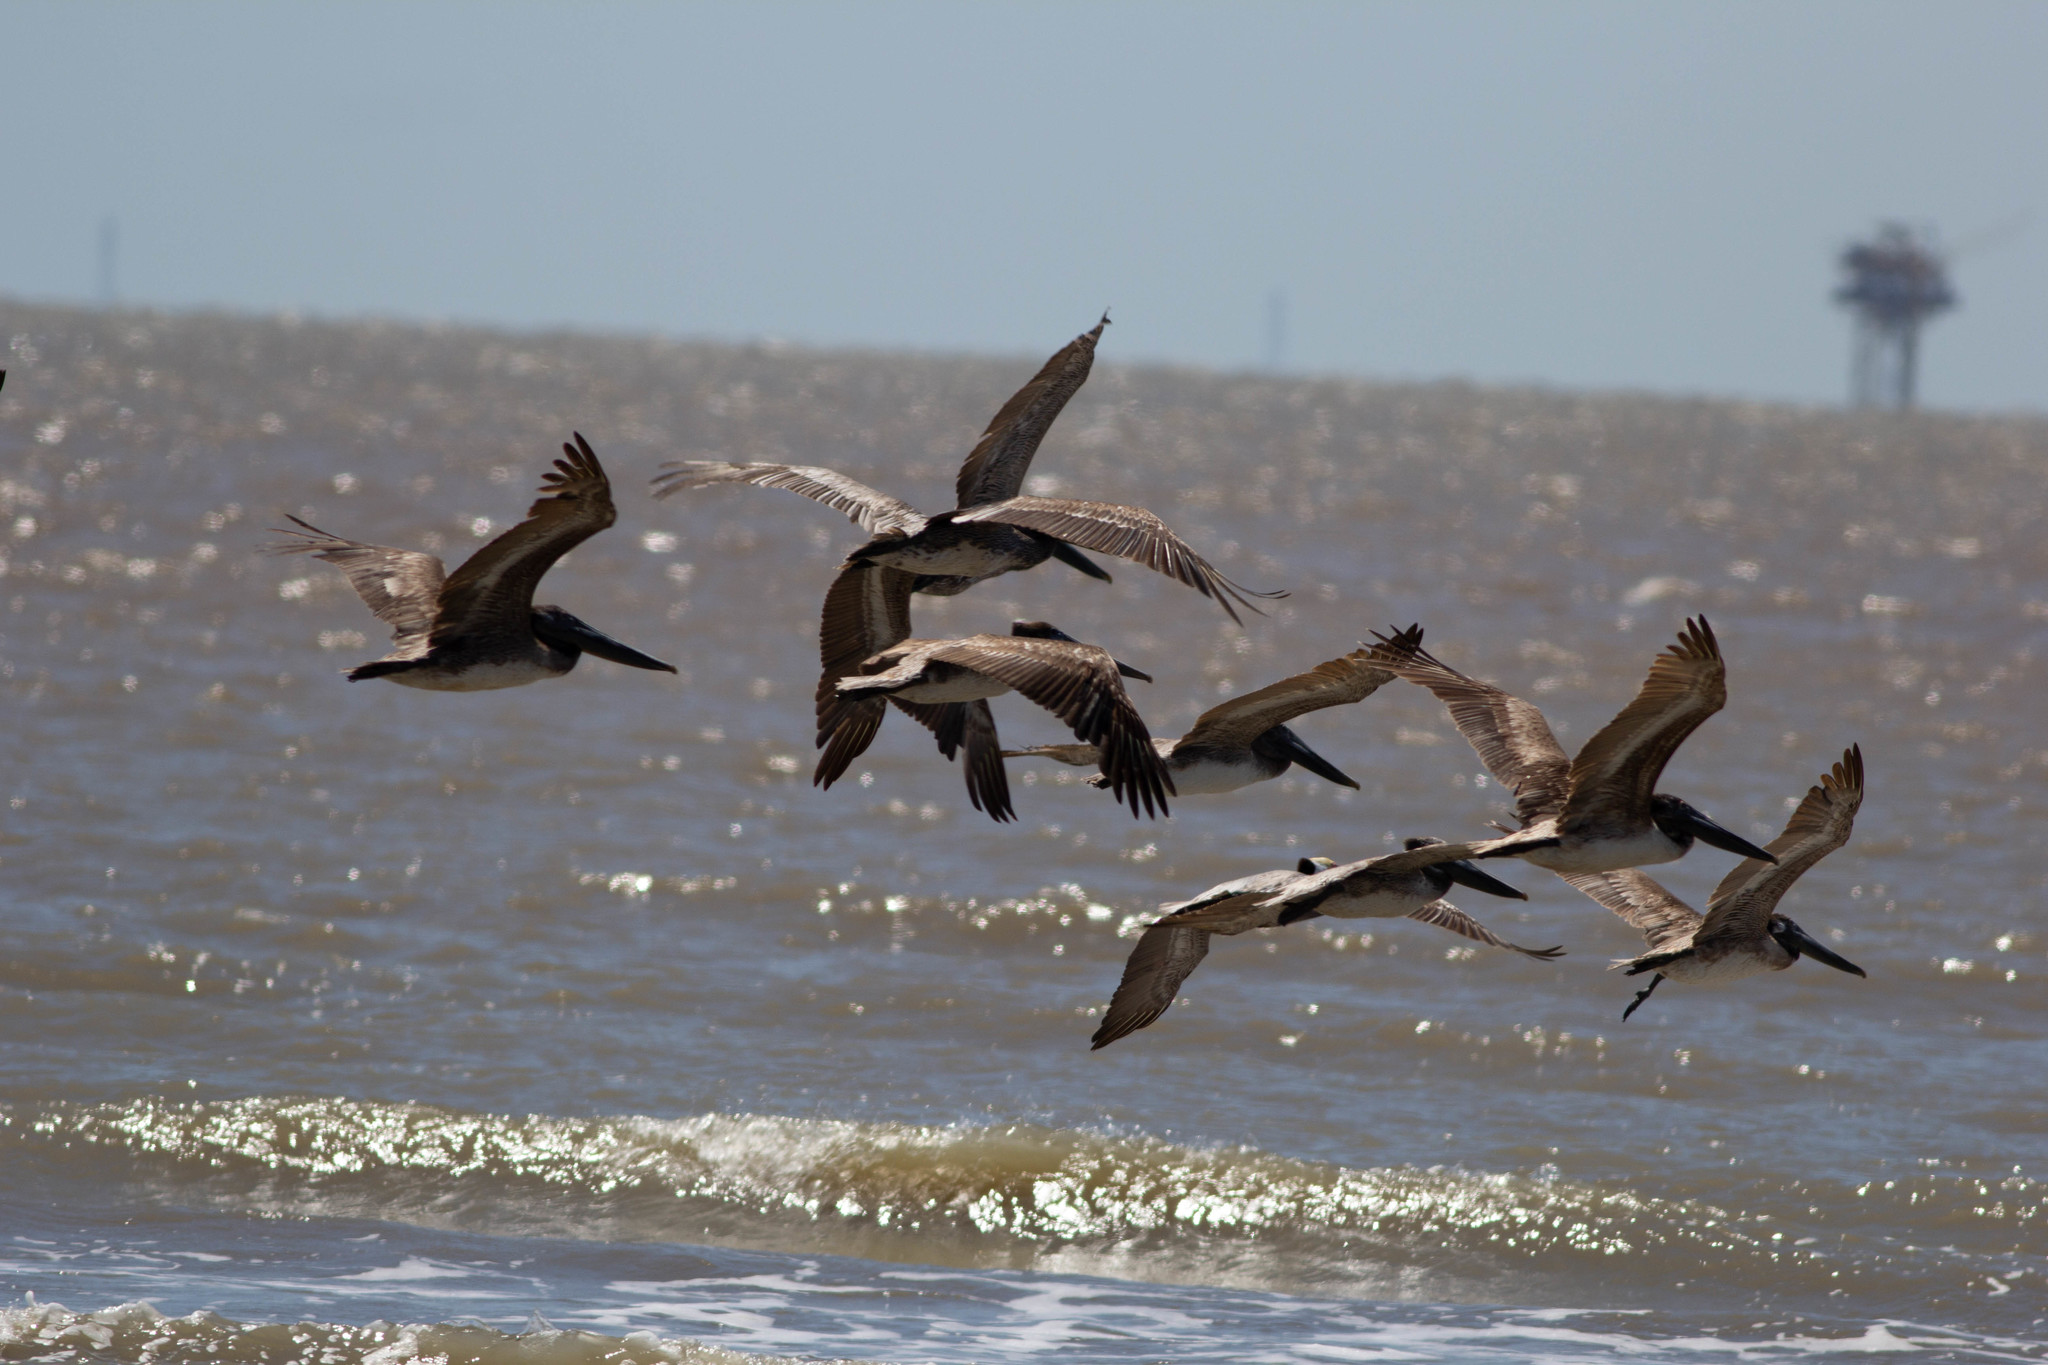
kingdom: Animalia
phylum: Chordata
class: Aves
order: Pelecaniformes
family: Pelecanidae
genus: Pelecanus
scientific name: Pelecanus occidentalis
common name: Brown pelican
